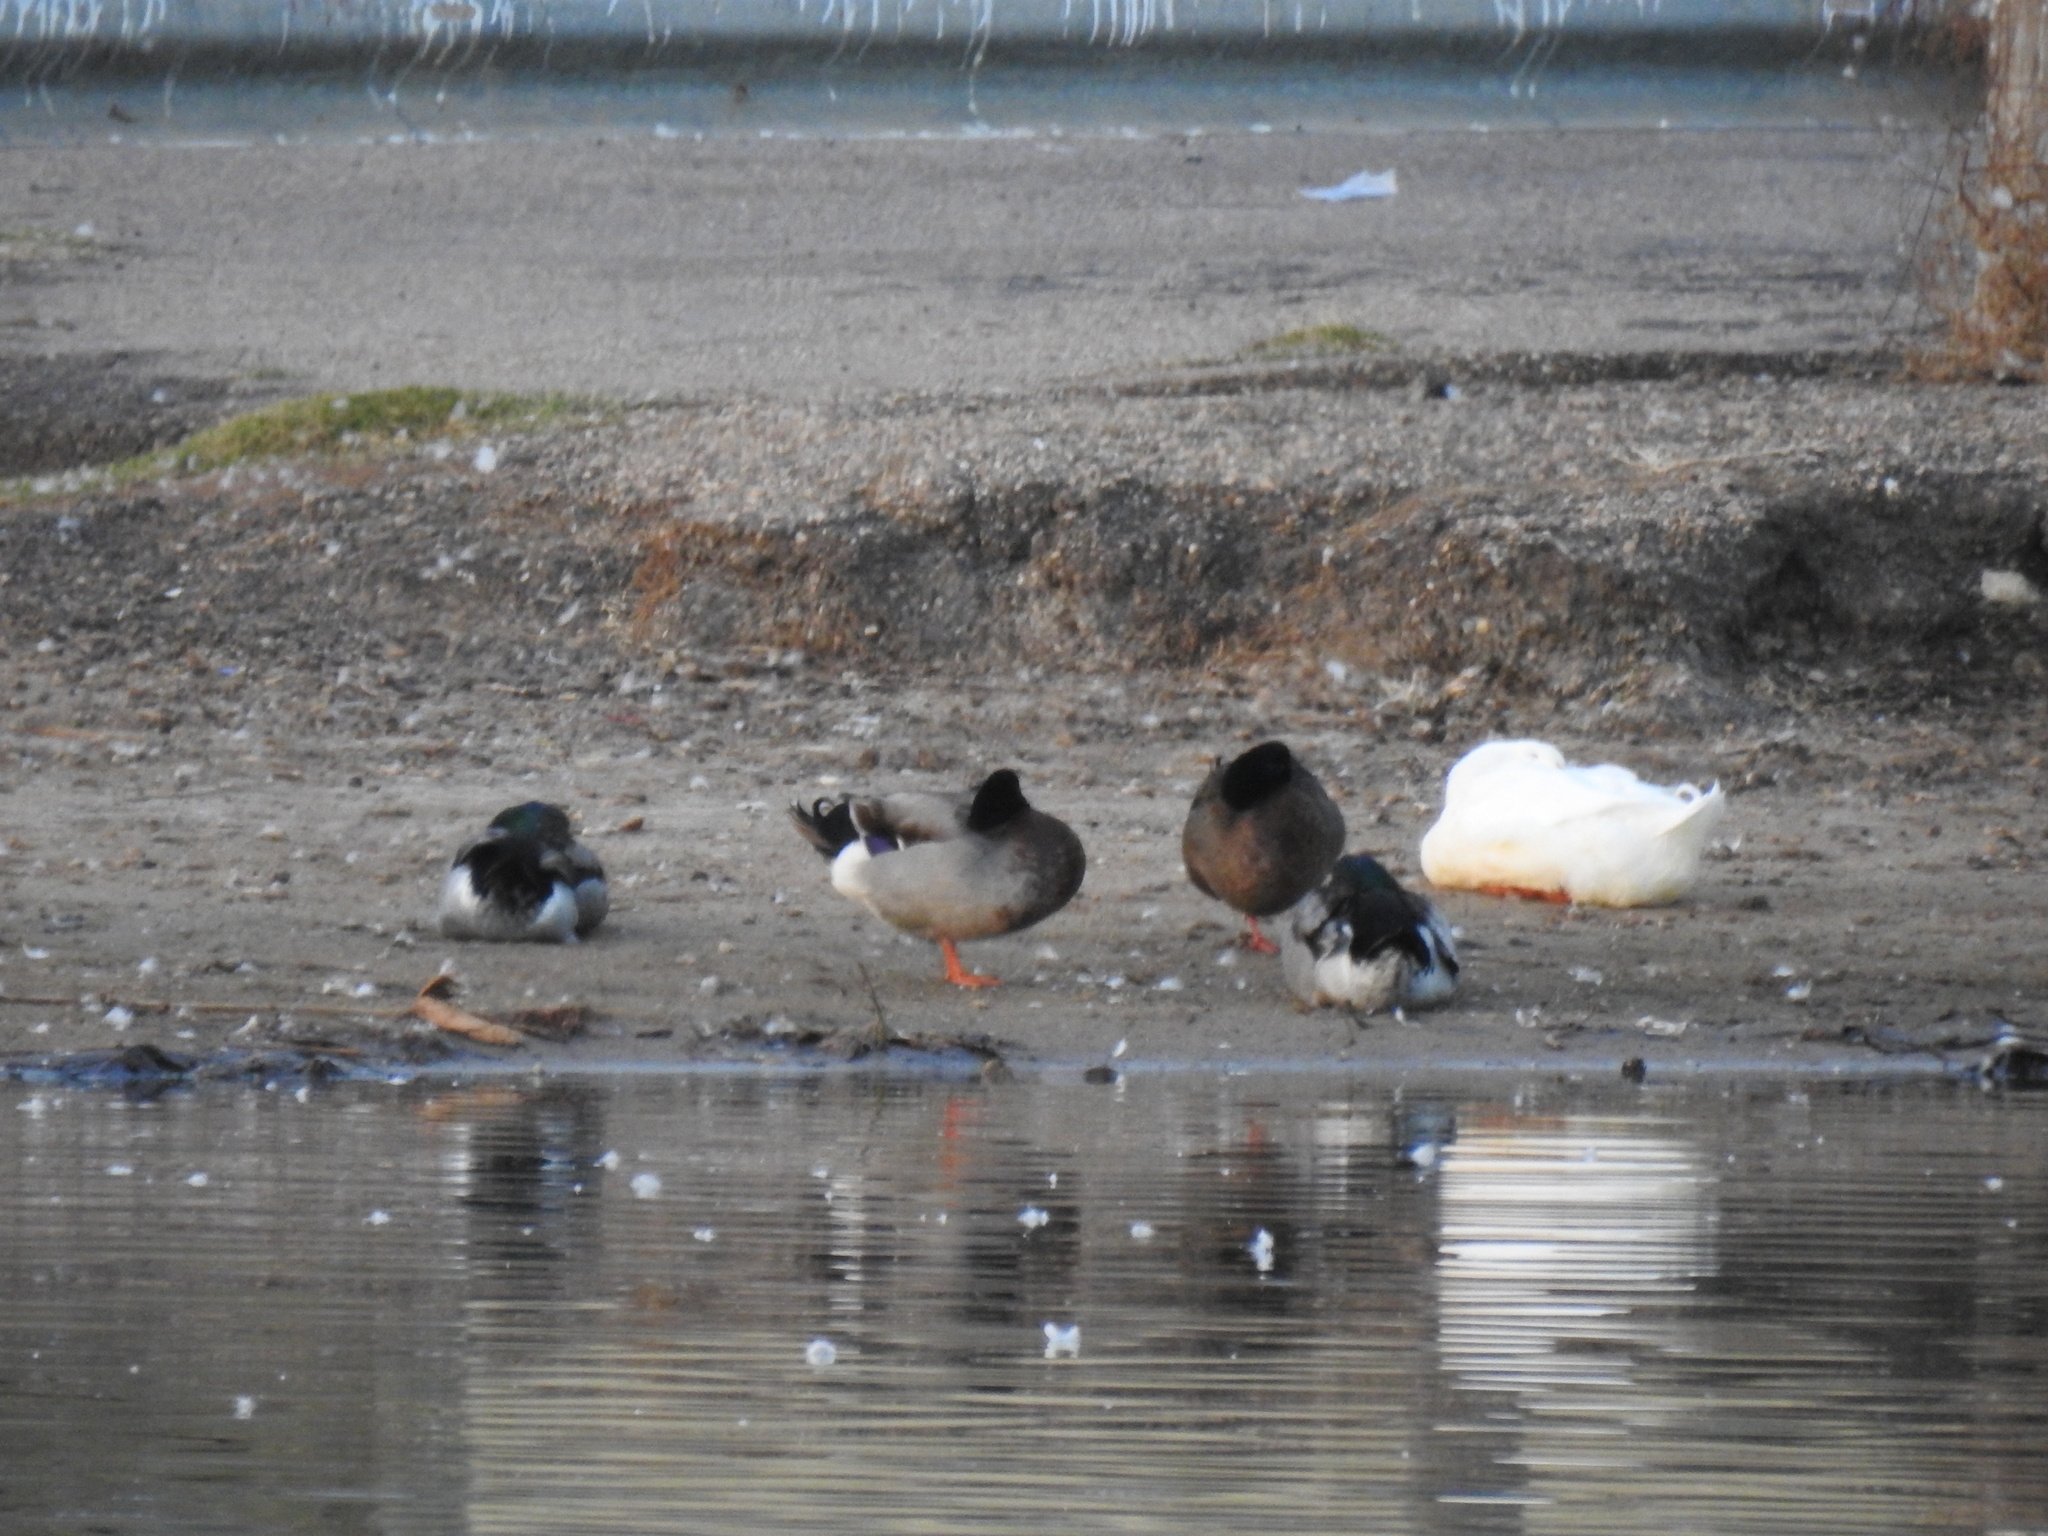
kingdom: Animalia
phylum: Chordata
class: Aves
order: Anseriformes
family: Anatidae
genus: Anas
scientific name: Anas platyrhynchos
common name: Mallard
